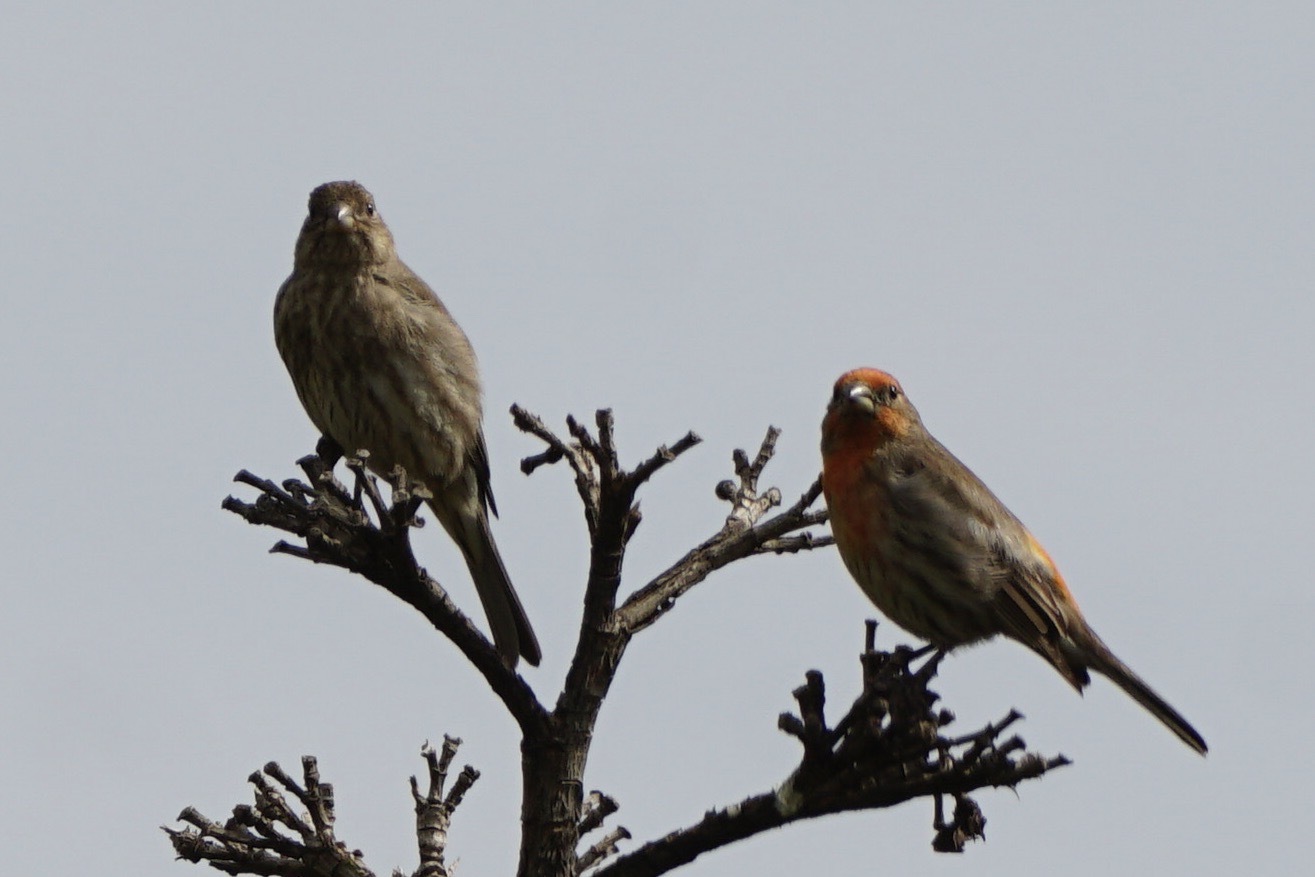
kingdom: Animalia
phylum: Chordata
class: Aves
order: Passeriformes
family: Fringillidae
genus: Haemorhous
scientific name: Haemorhous mexicanus
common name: House finch
